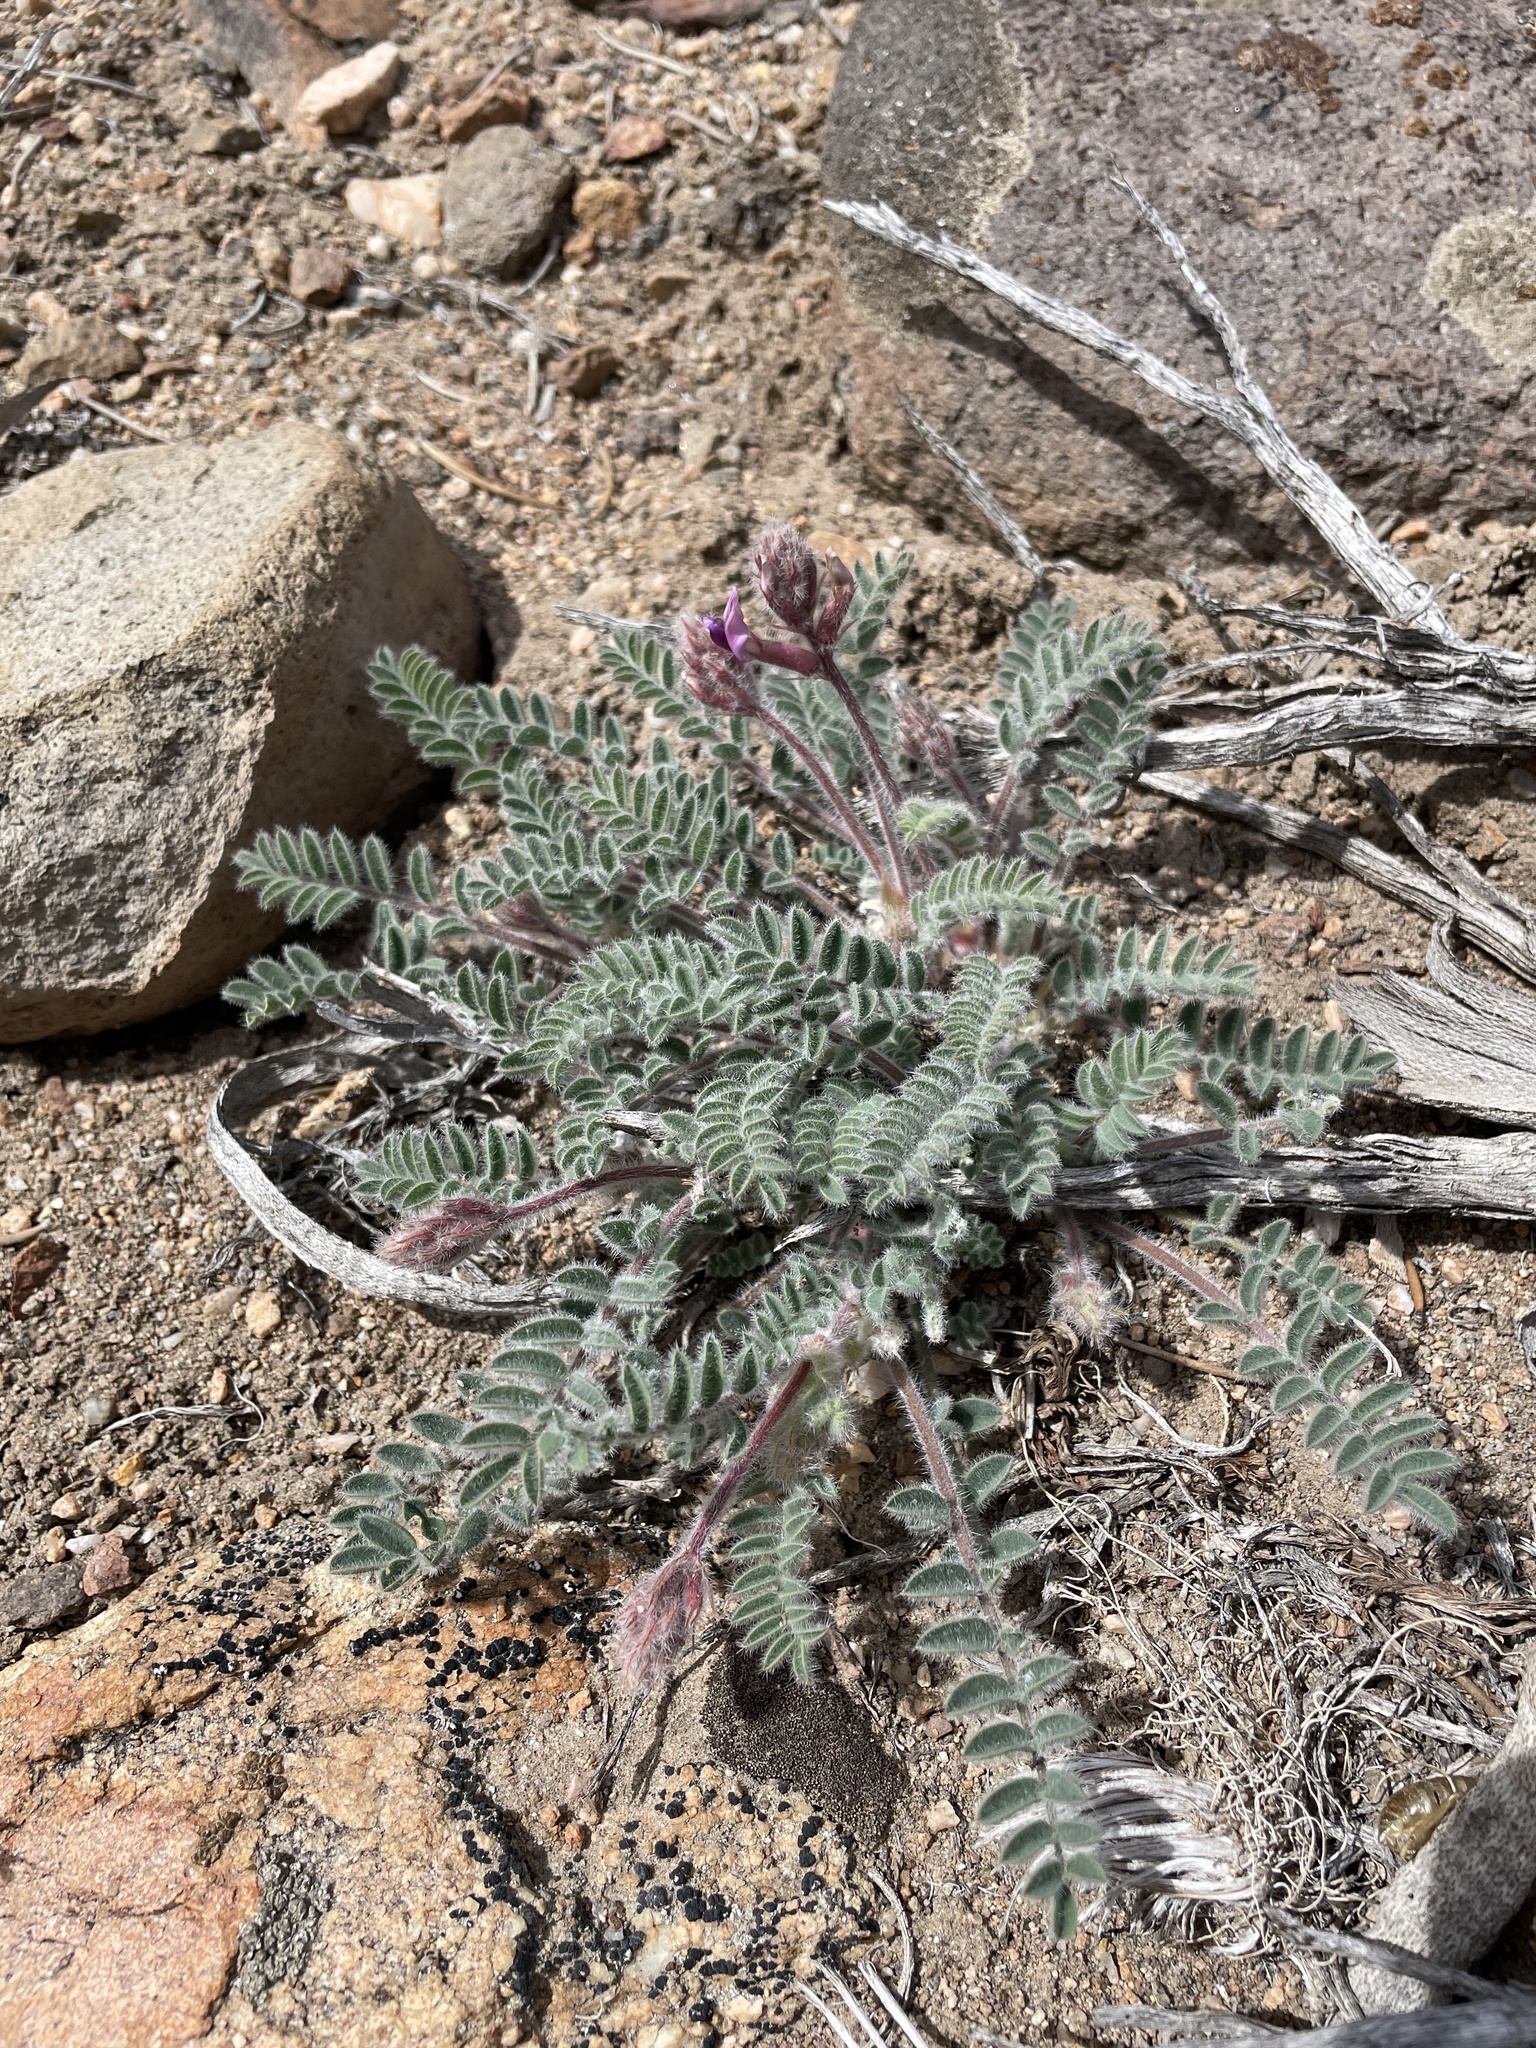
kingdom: Plantae
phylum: Tracheophyta
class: Magnoliopsida
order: Fabales
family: Fabaceae
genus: Astragalus
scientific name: Astragalus malacus
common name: Shaggy milk-vetch
